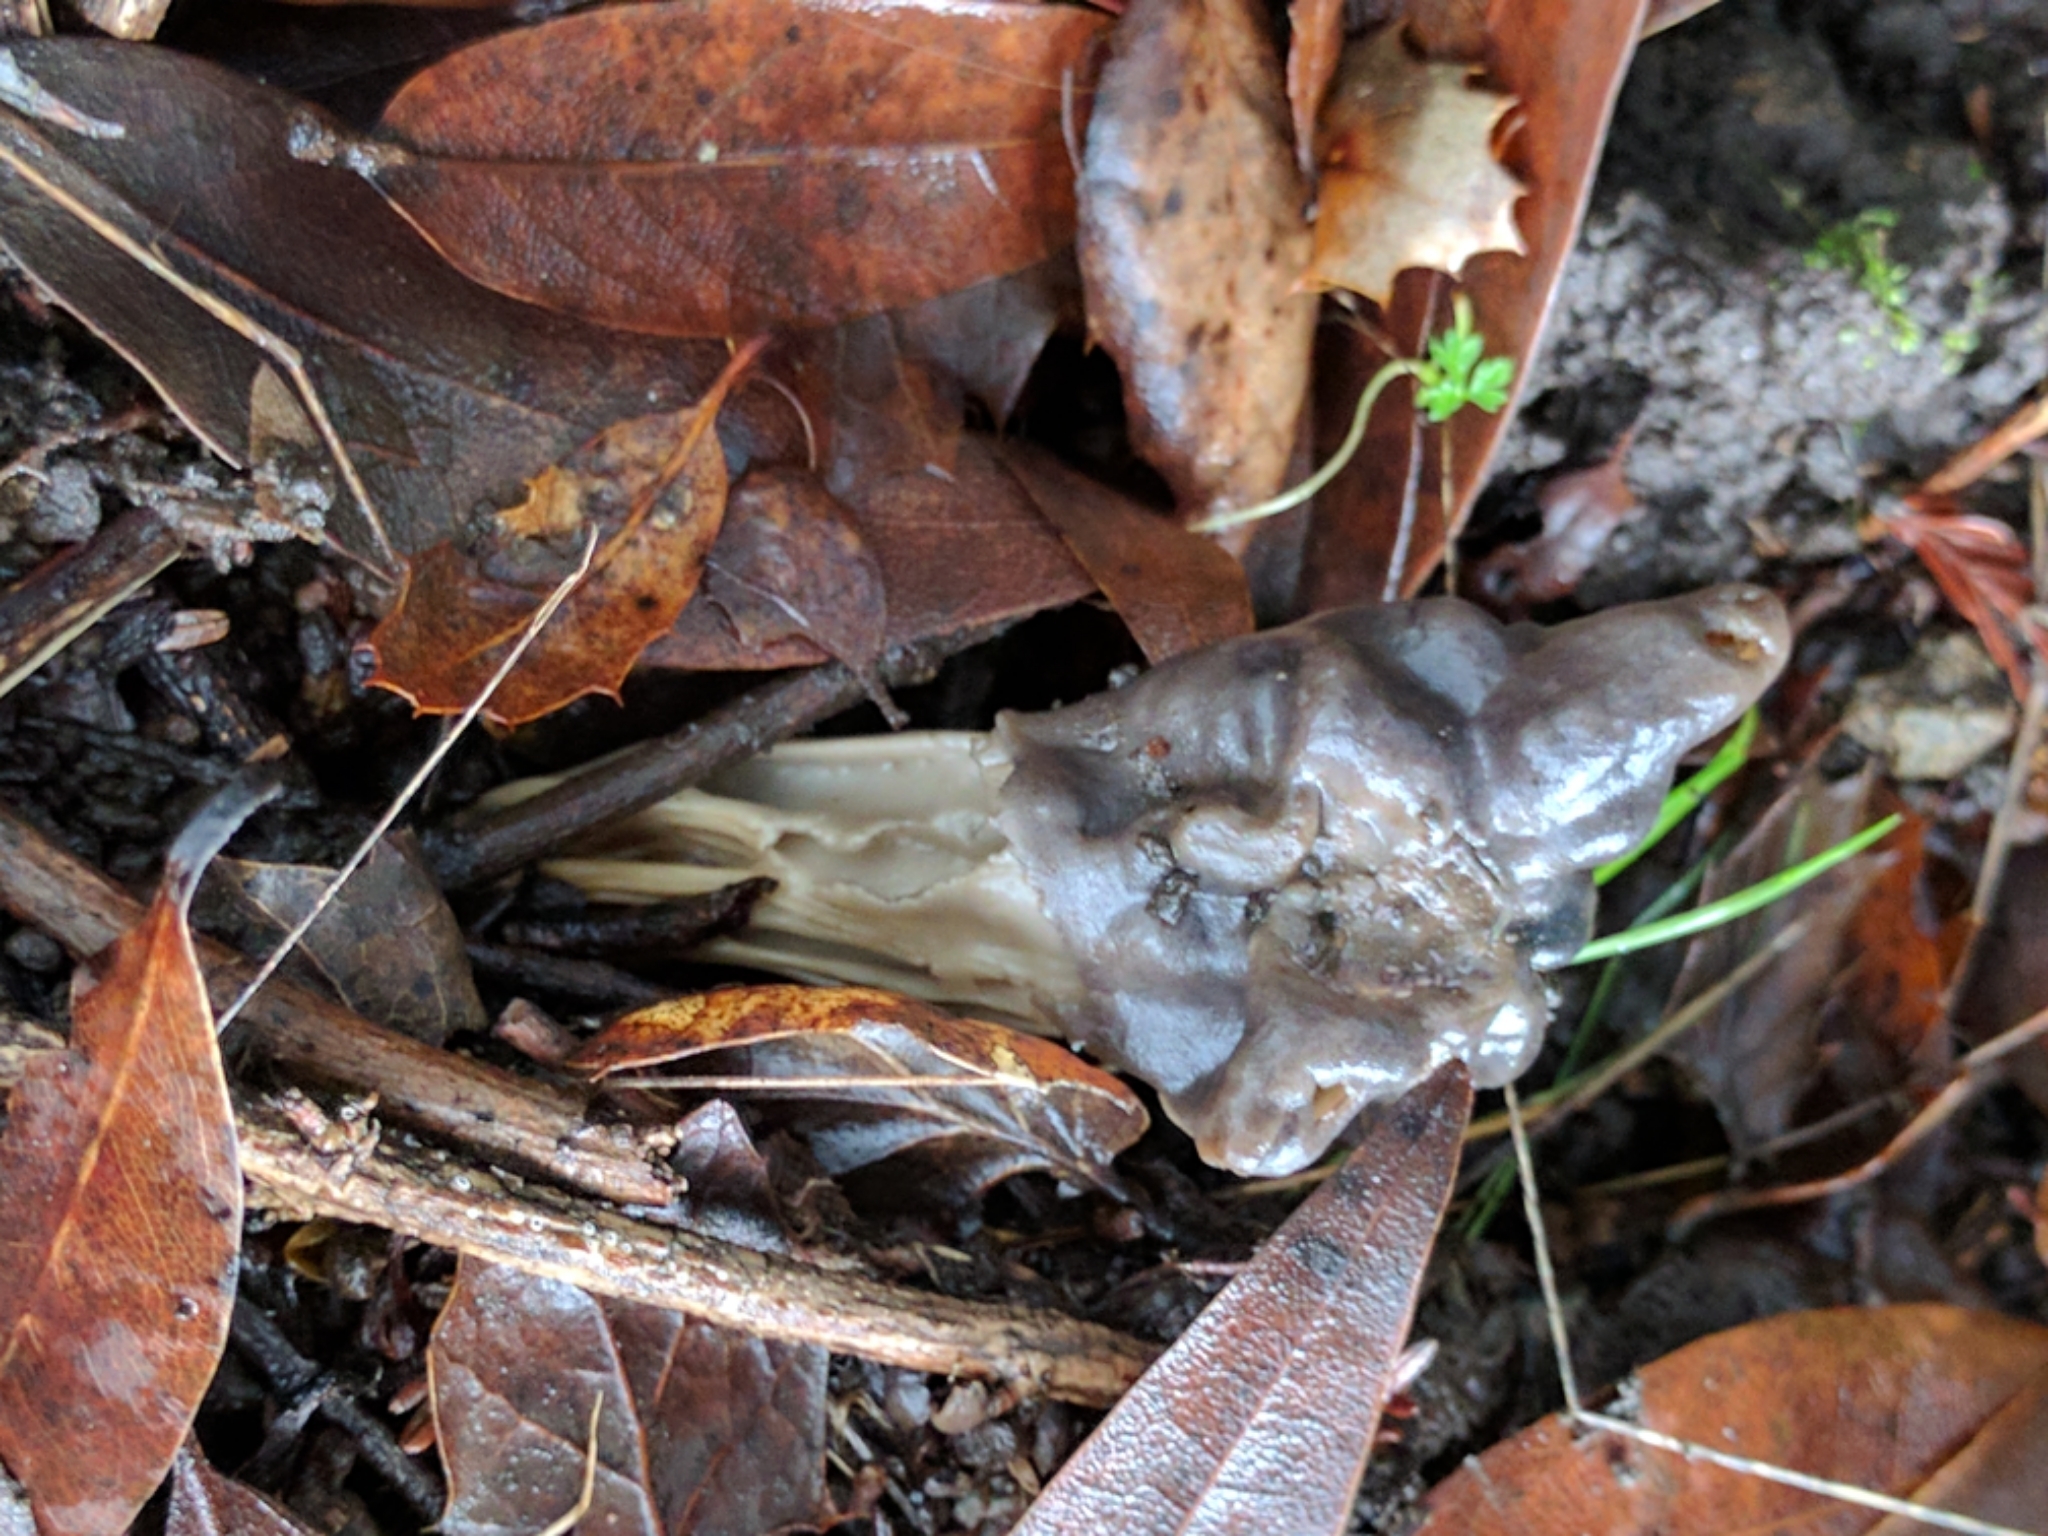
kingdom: Fungi
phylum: Ascomycota
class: Pezizomycetes
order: Pezizales
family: Helvellaceae
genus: Helvella
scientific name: Helvella dryophila
